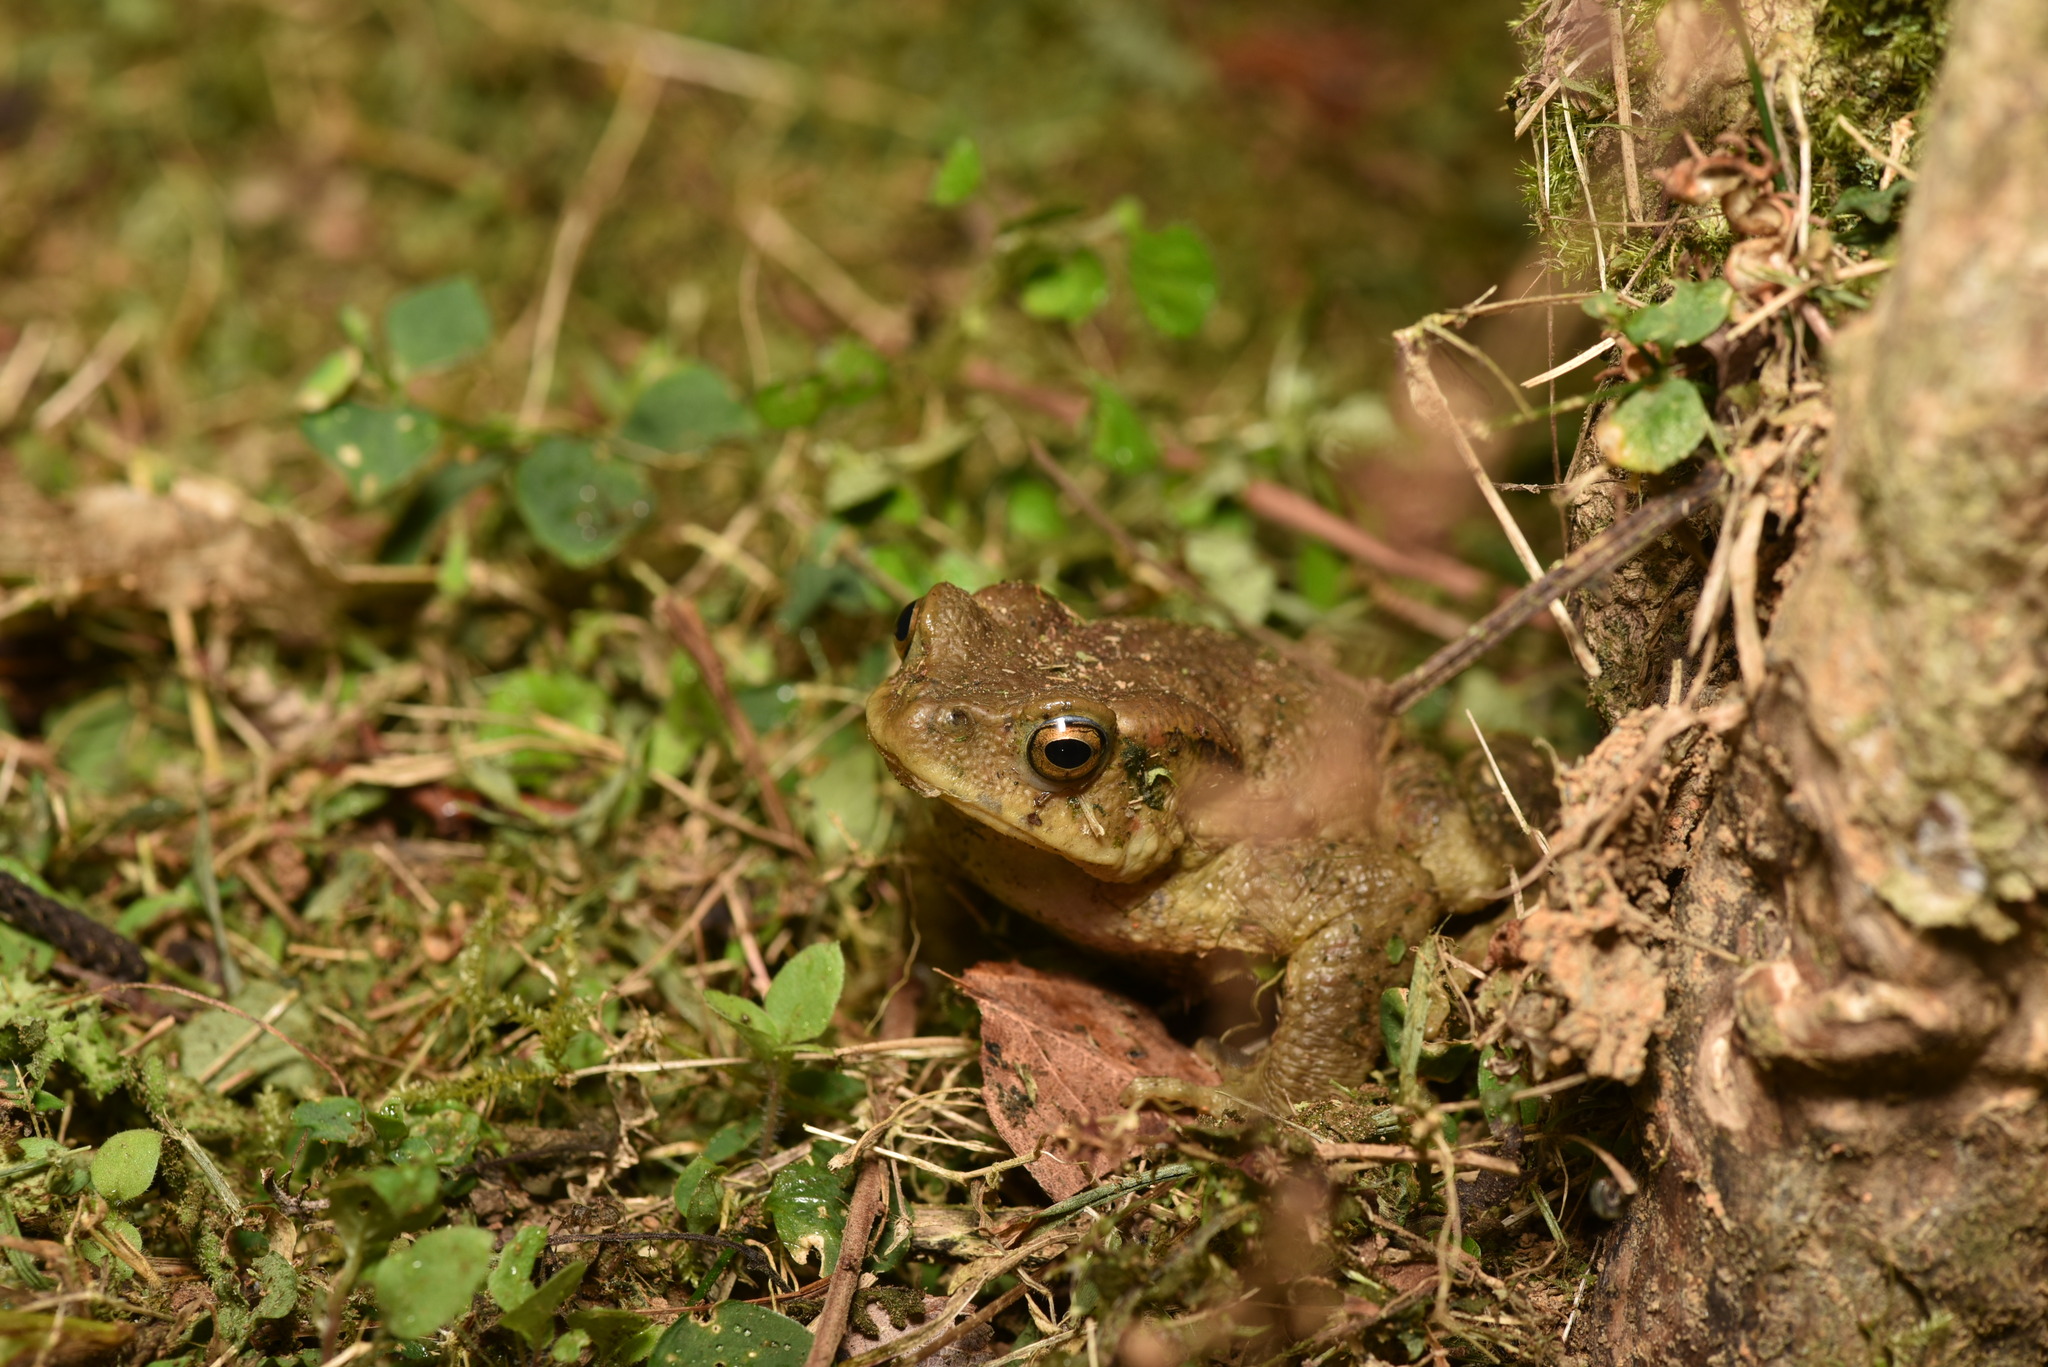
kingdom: Animalia
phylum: Chordata
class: Amphibia
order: Anura
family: Bufonidae
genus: Bufo
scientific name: Bufo bankorensis
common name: Bankor toad
